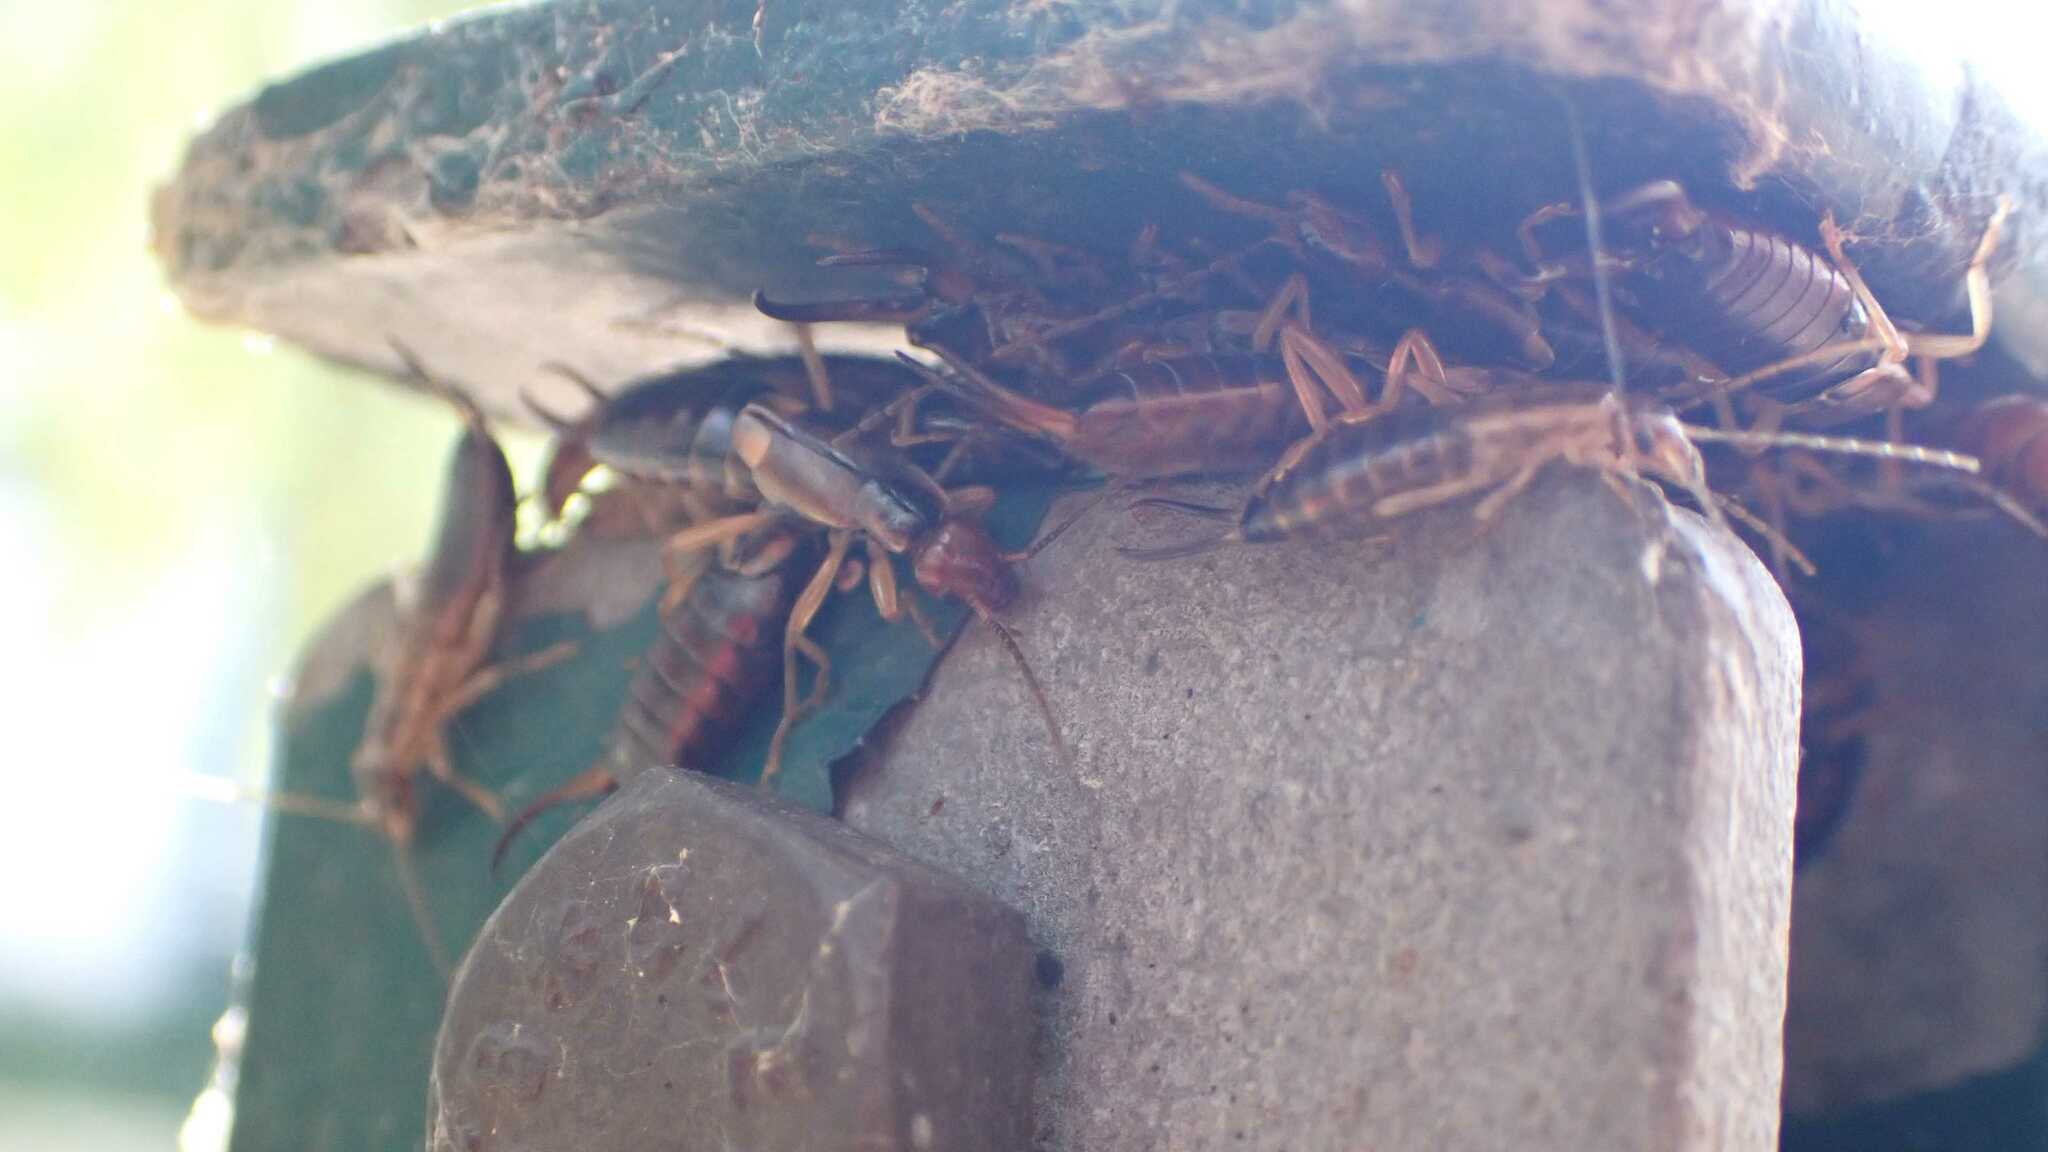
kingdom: Animalia
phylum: Arthropoda
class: Insecta
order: Dermaptera
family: Forficulidae
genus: Forficula
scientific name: Forficula
